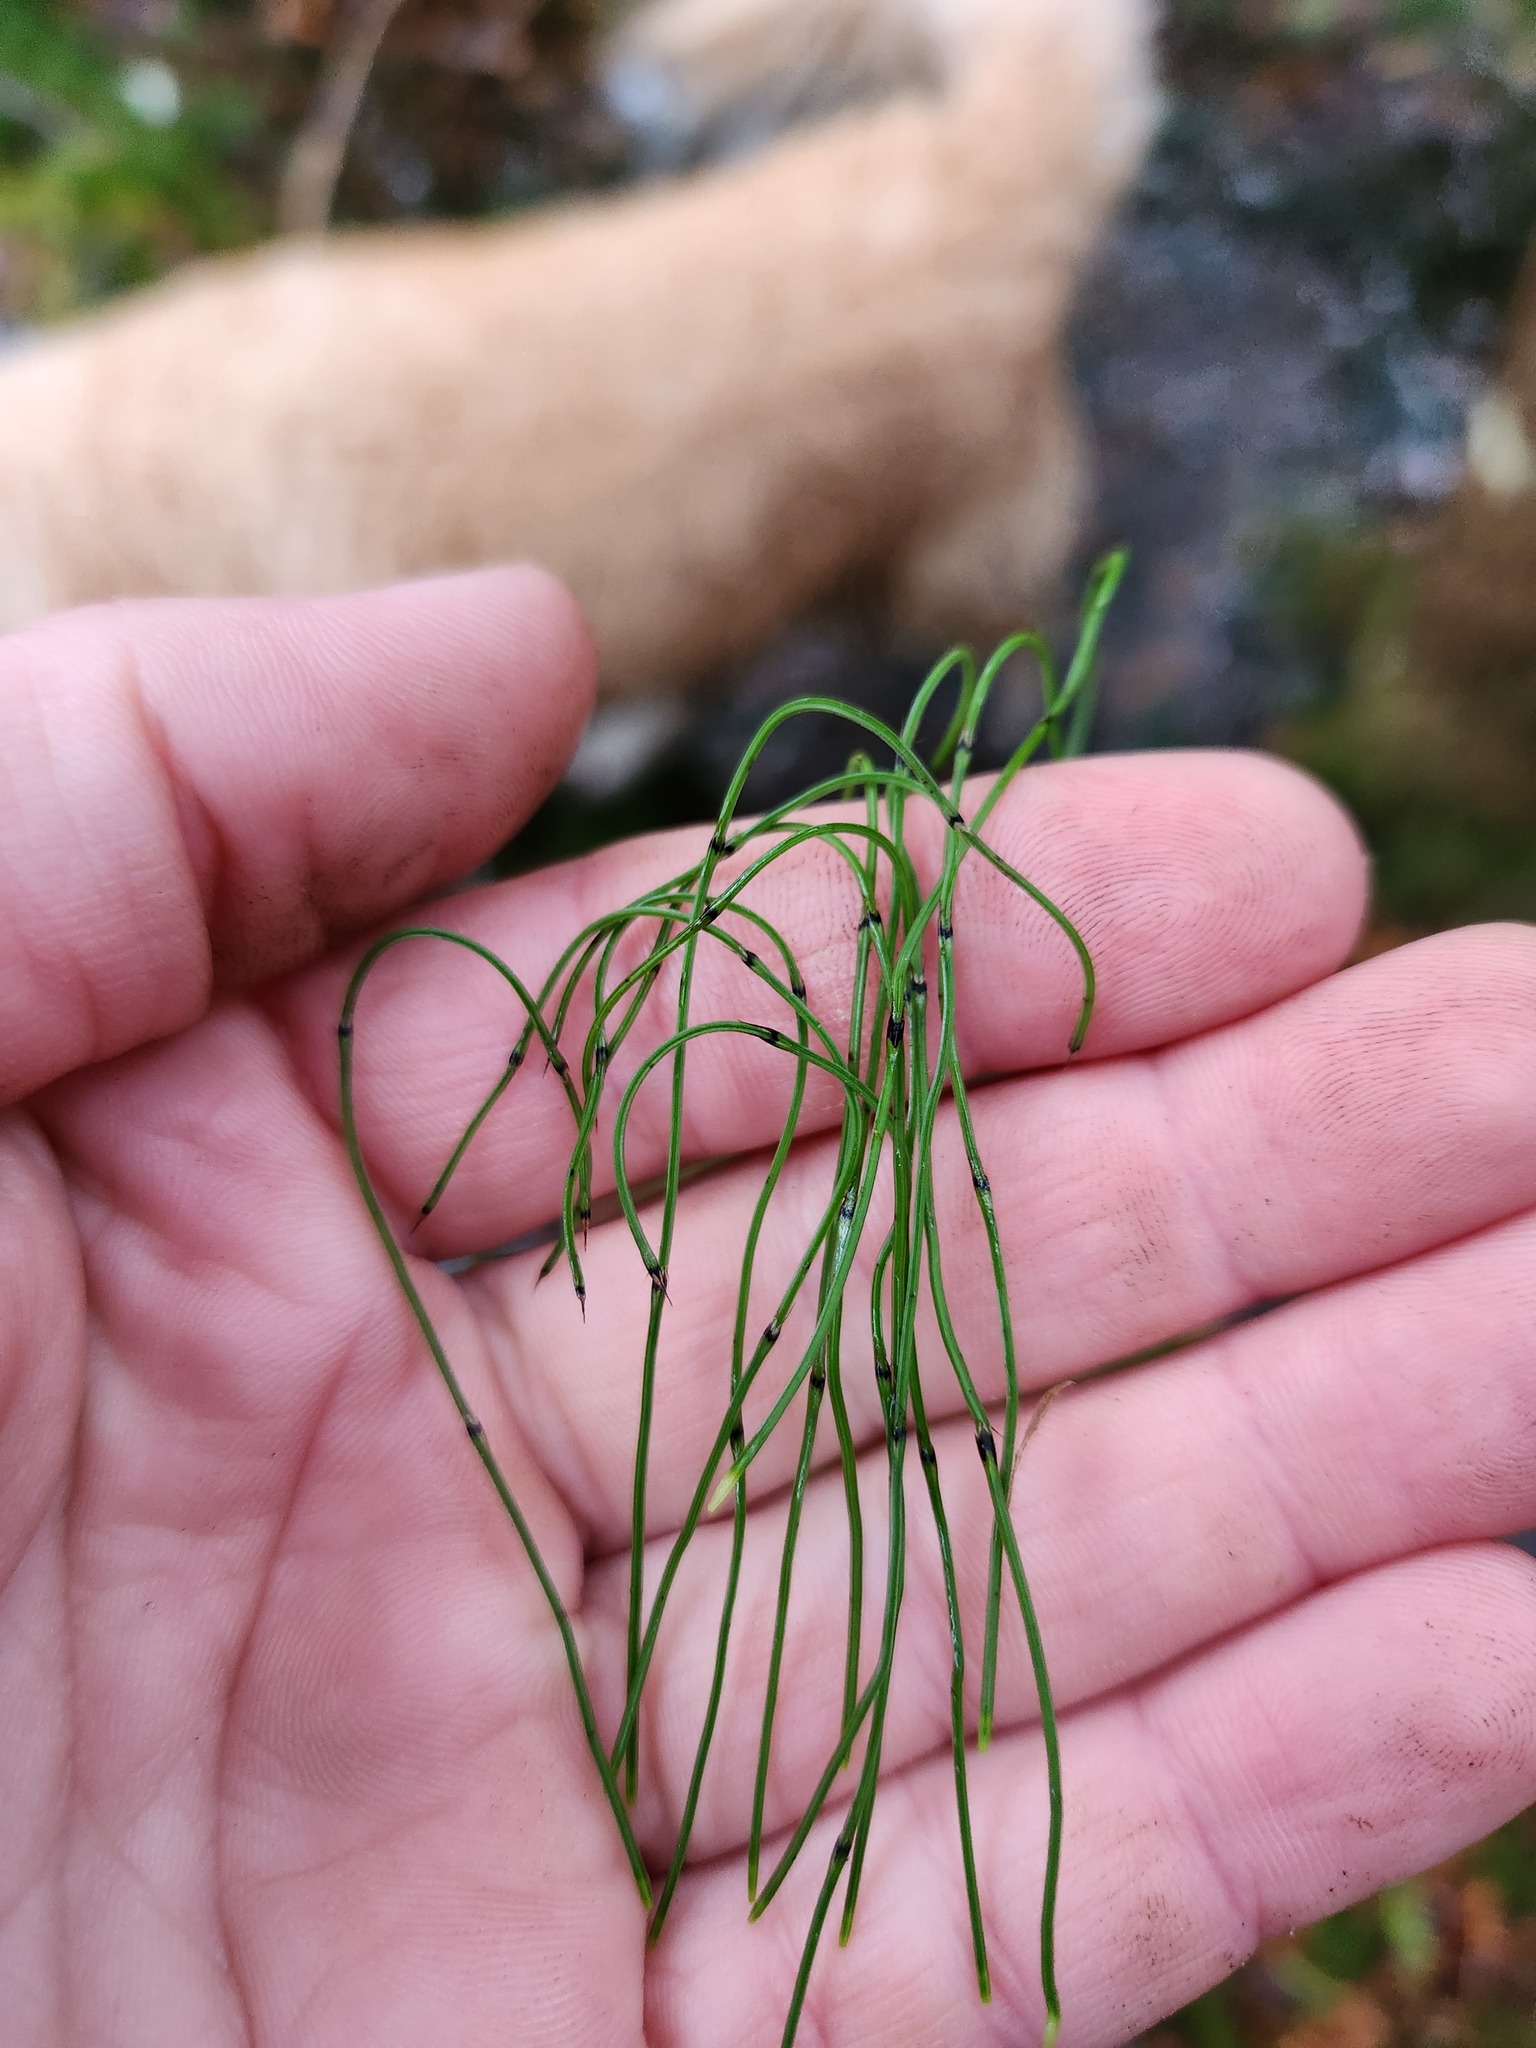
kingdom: Plantae
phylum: Tracheophyta
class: Polypodiopsida
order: Equisetales
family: Equisetaceae
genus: Equisetum
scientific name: Equisetum scirpoides
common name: Delicate horsetail
